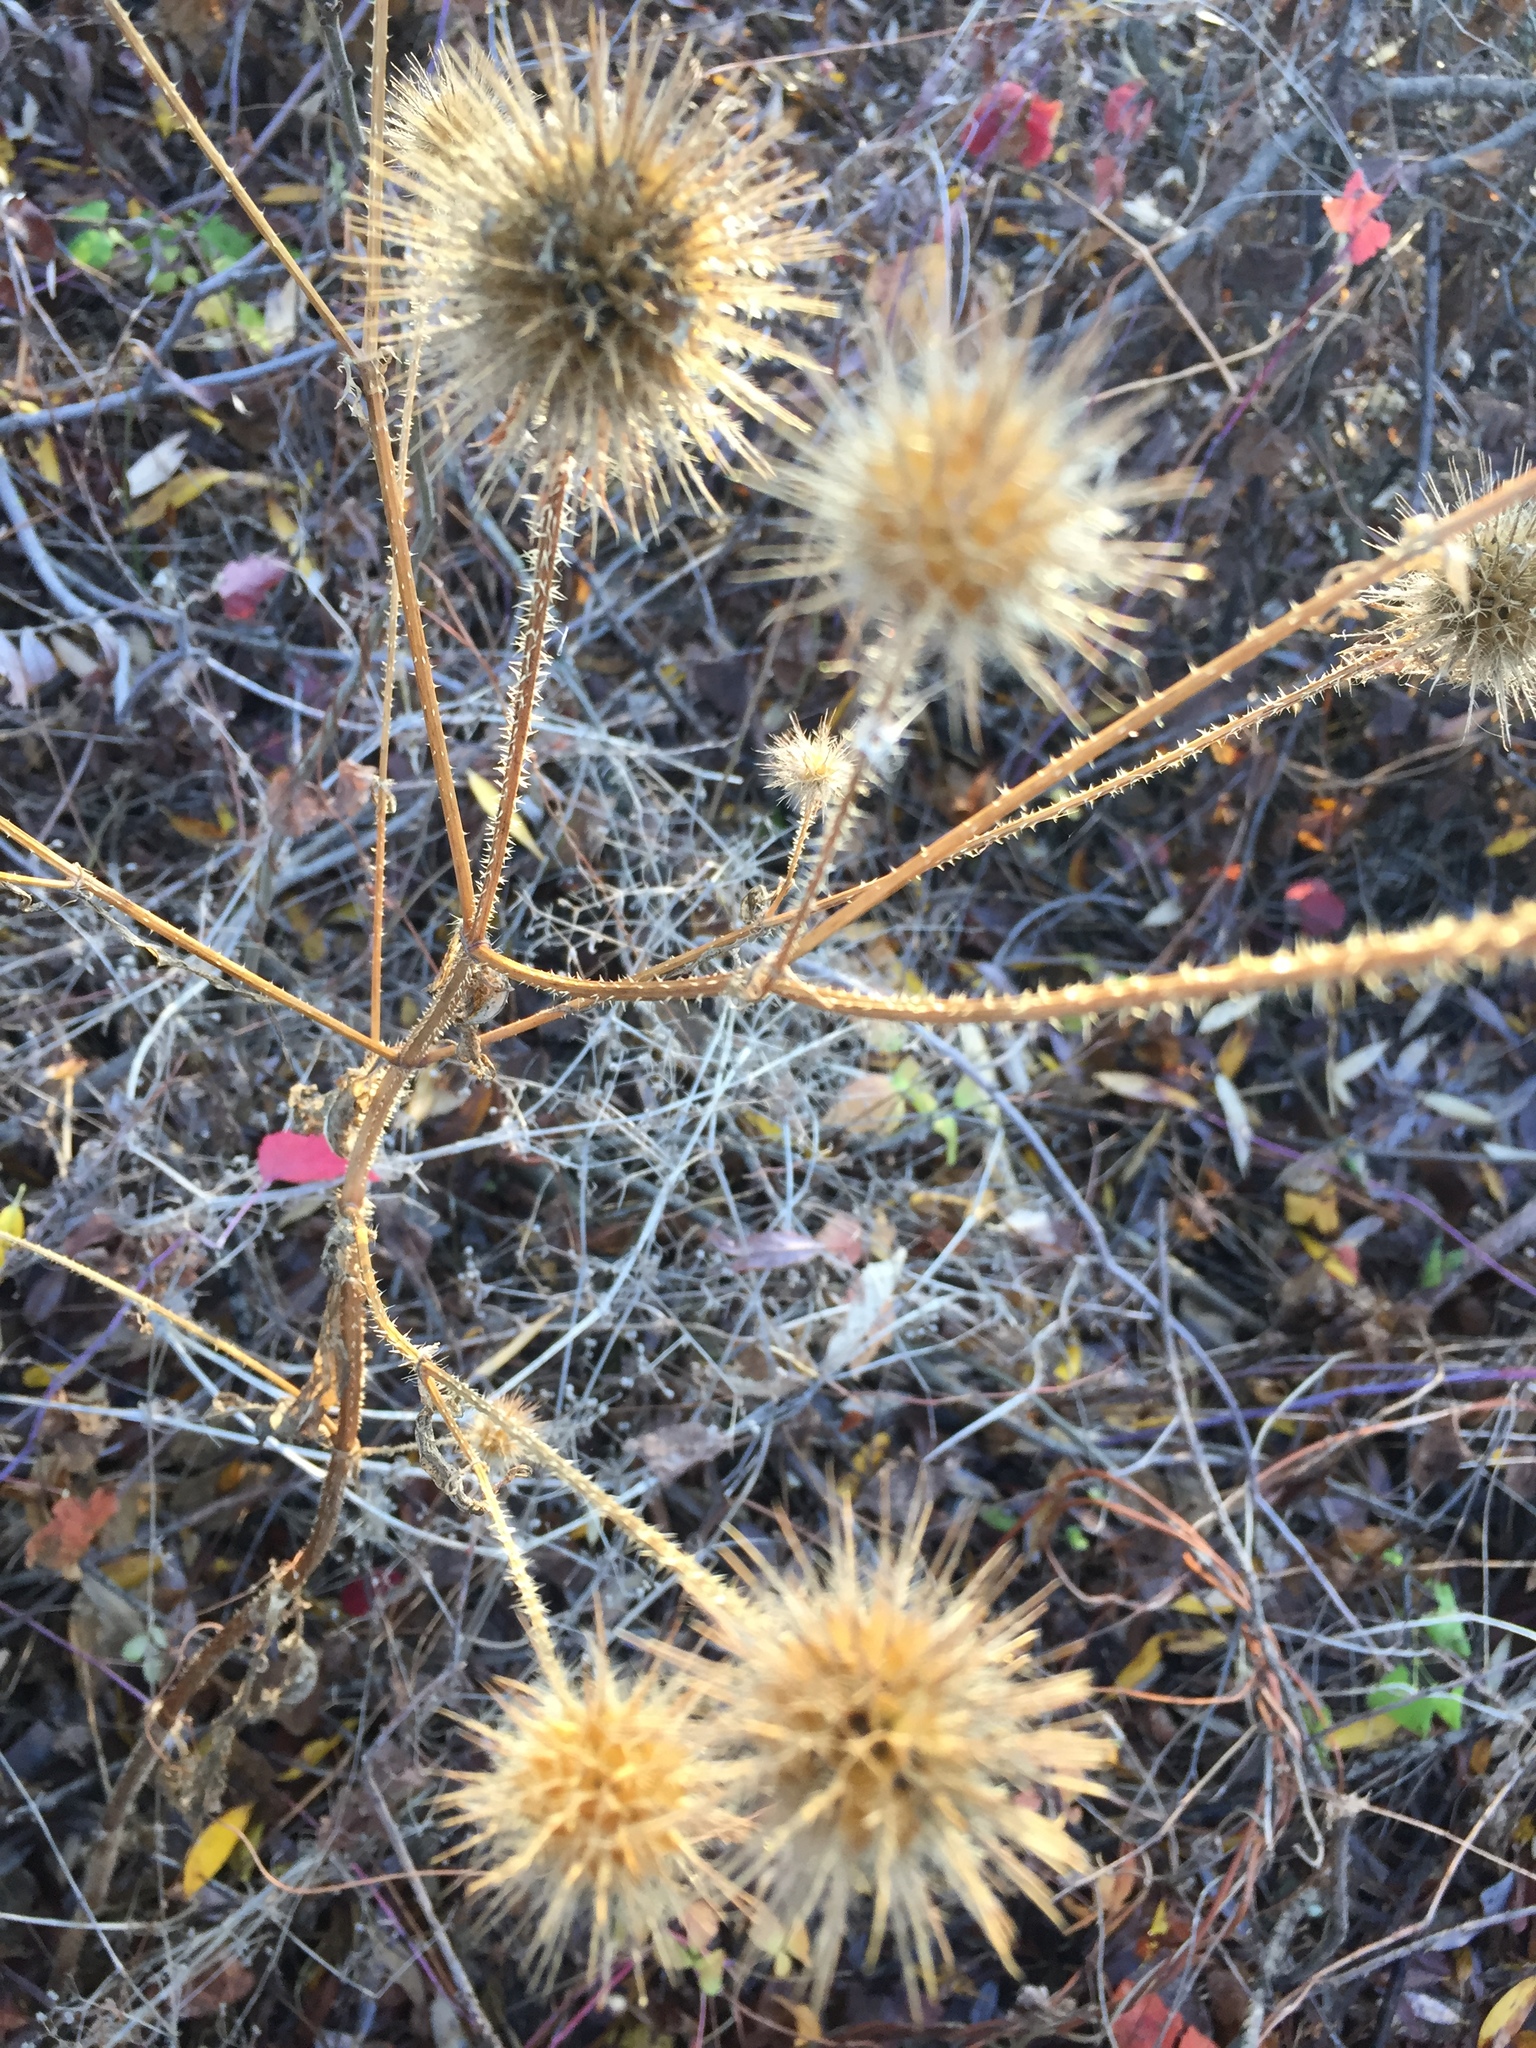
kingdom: Plantae
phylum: Tracheophyta
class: Magnoliopsida
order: Dipsacales
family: Caprifoliaceae
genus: Dipsacus
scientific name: Dipsacus strigosus
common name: Yellow-flowered teasel
